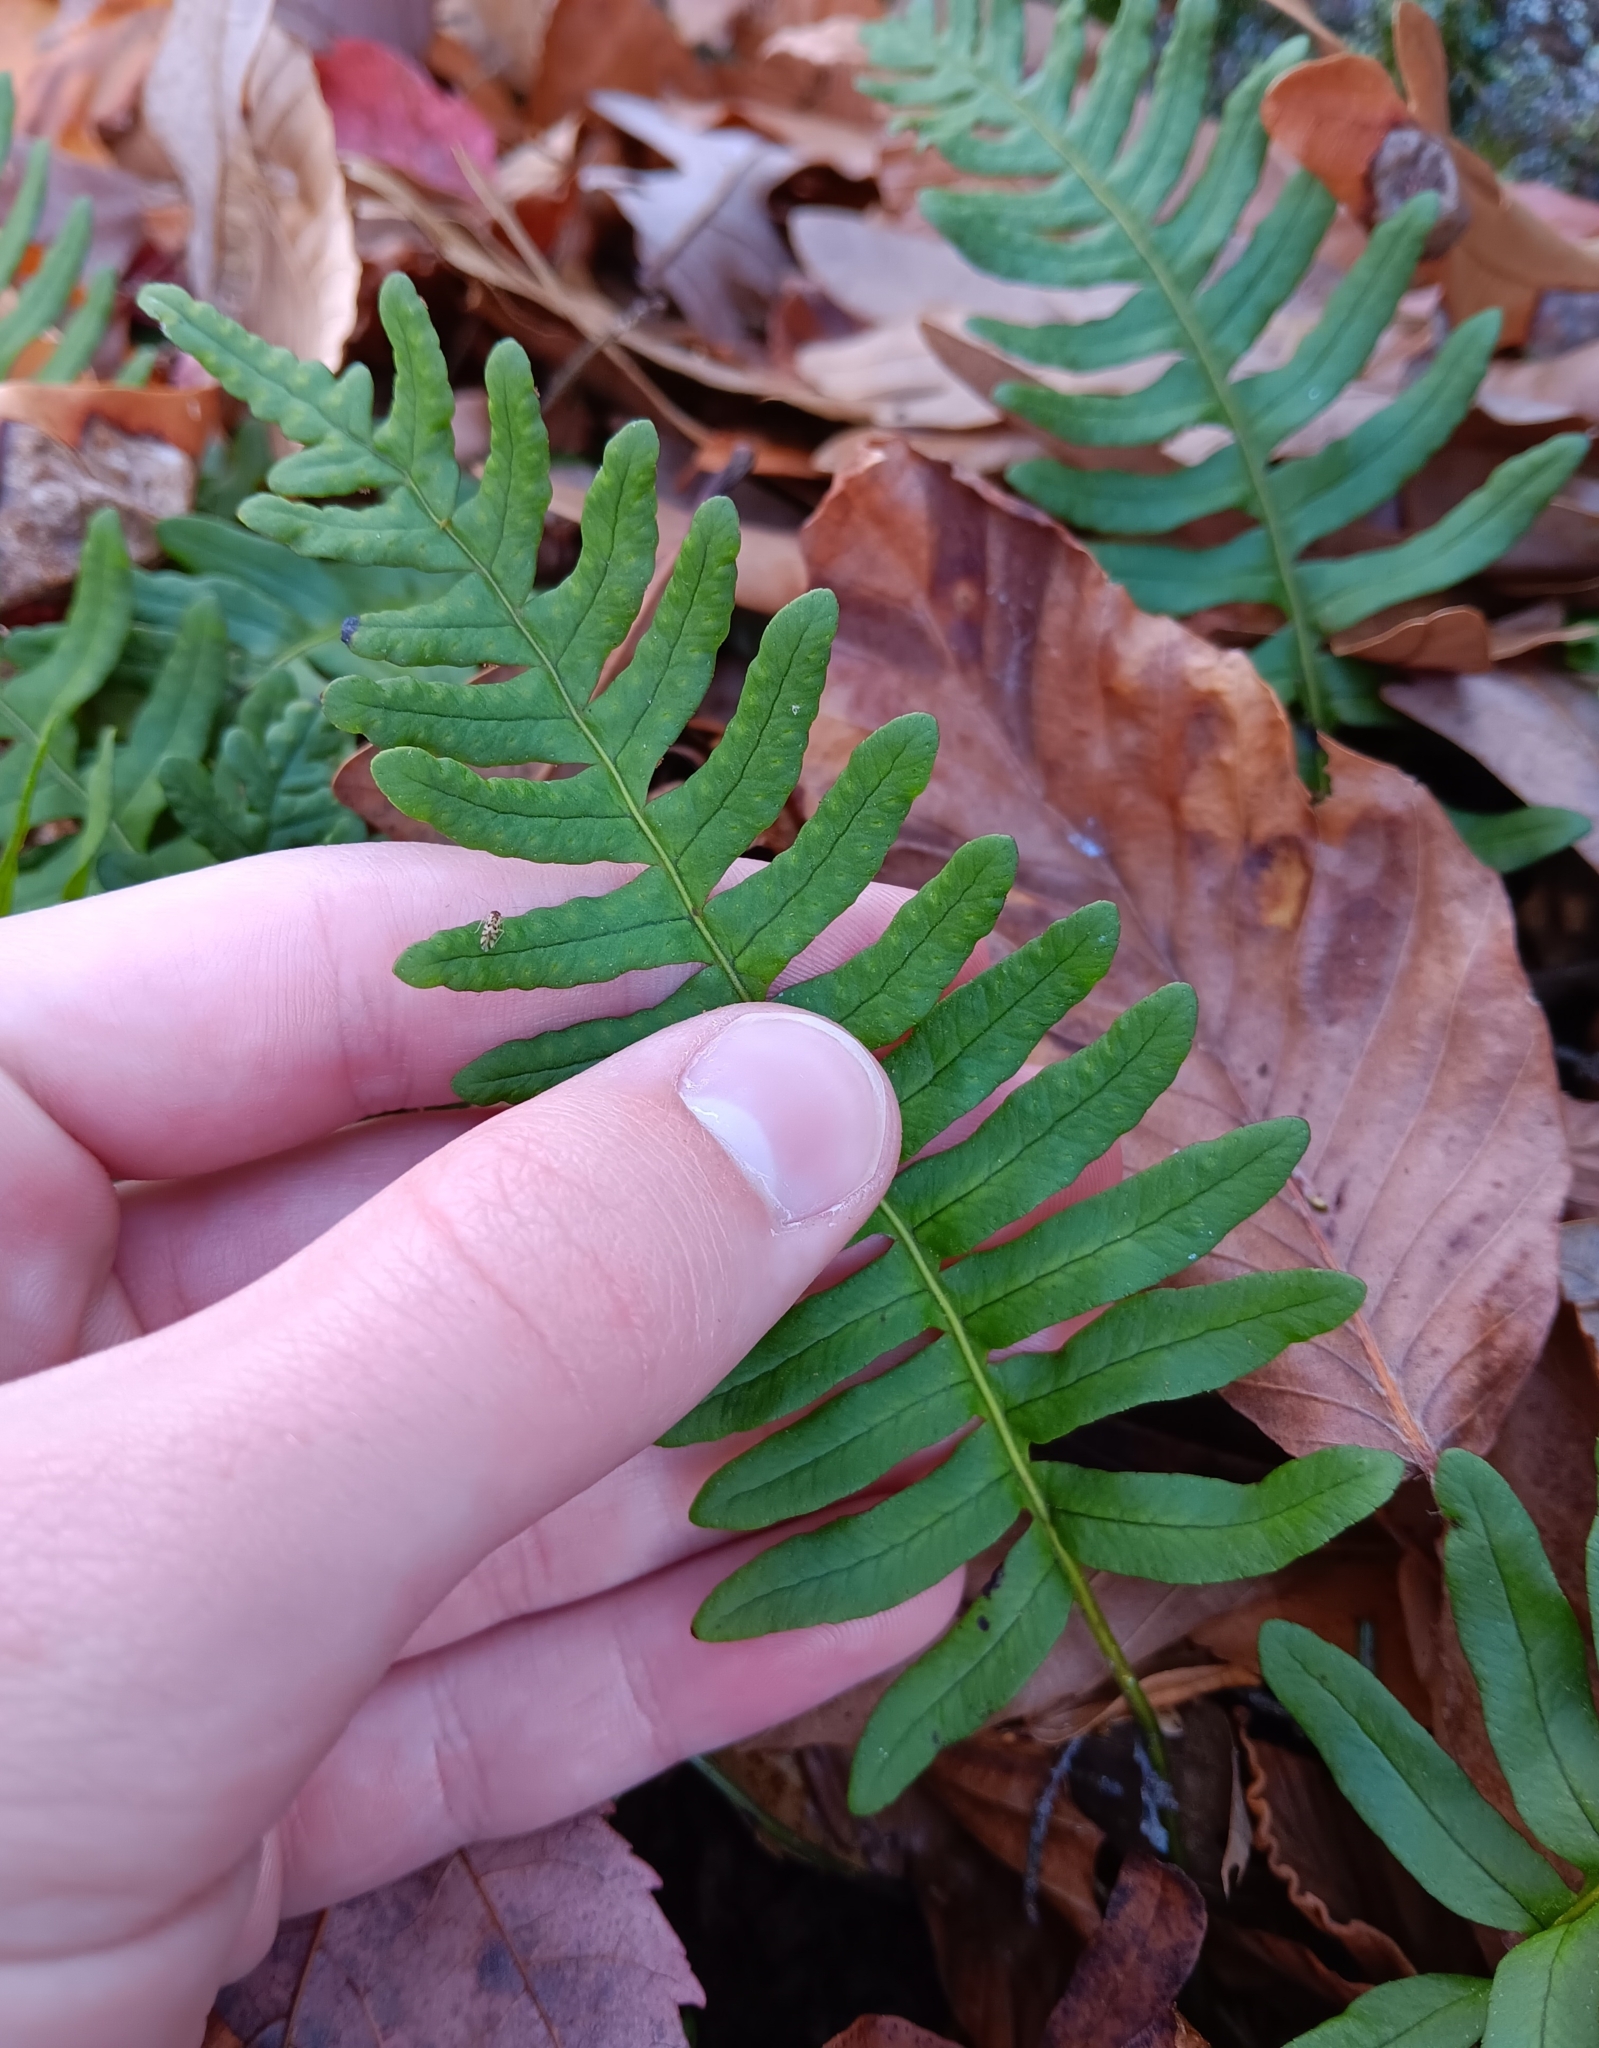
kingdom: Plantae
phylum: Tracheophyta
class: Polypodiopsida
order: Polypodiales
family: Polypodiaceae
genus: Polypodium
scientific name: Polypodium virginianum
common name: American wall fern
